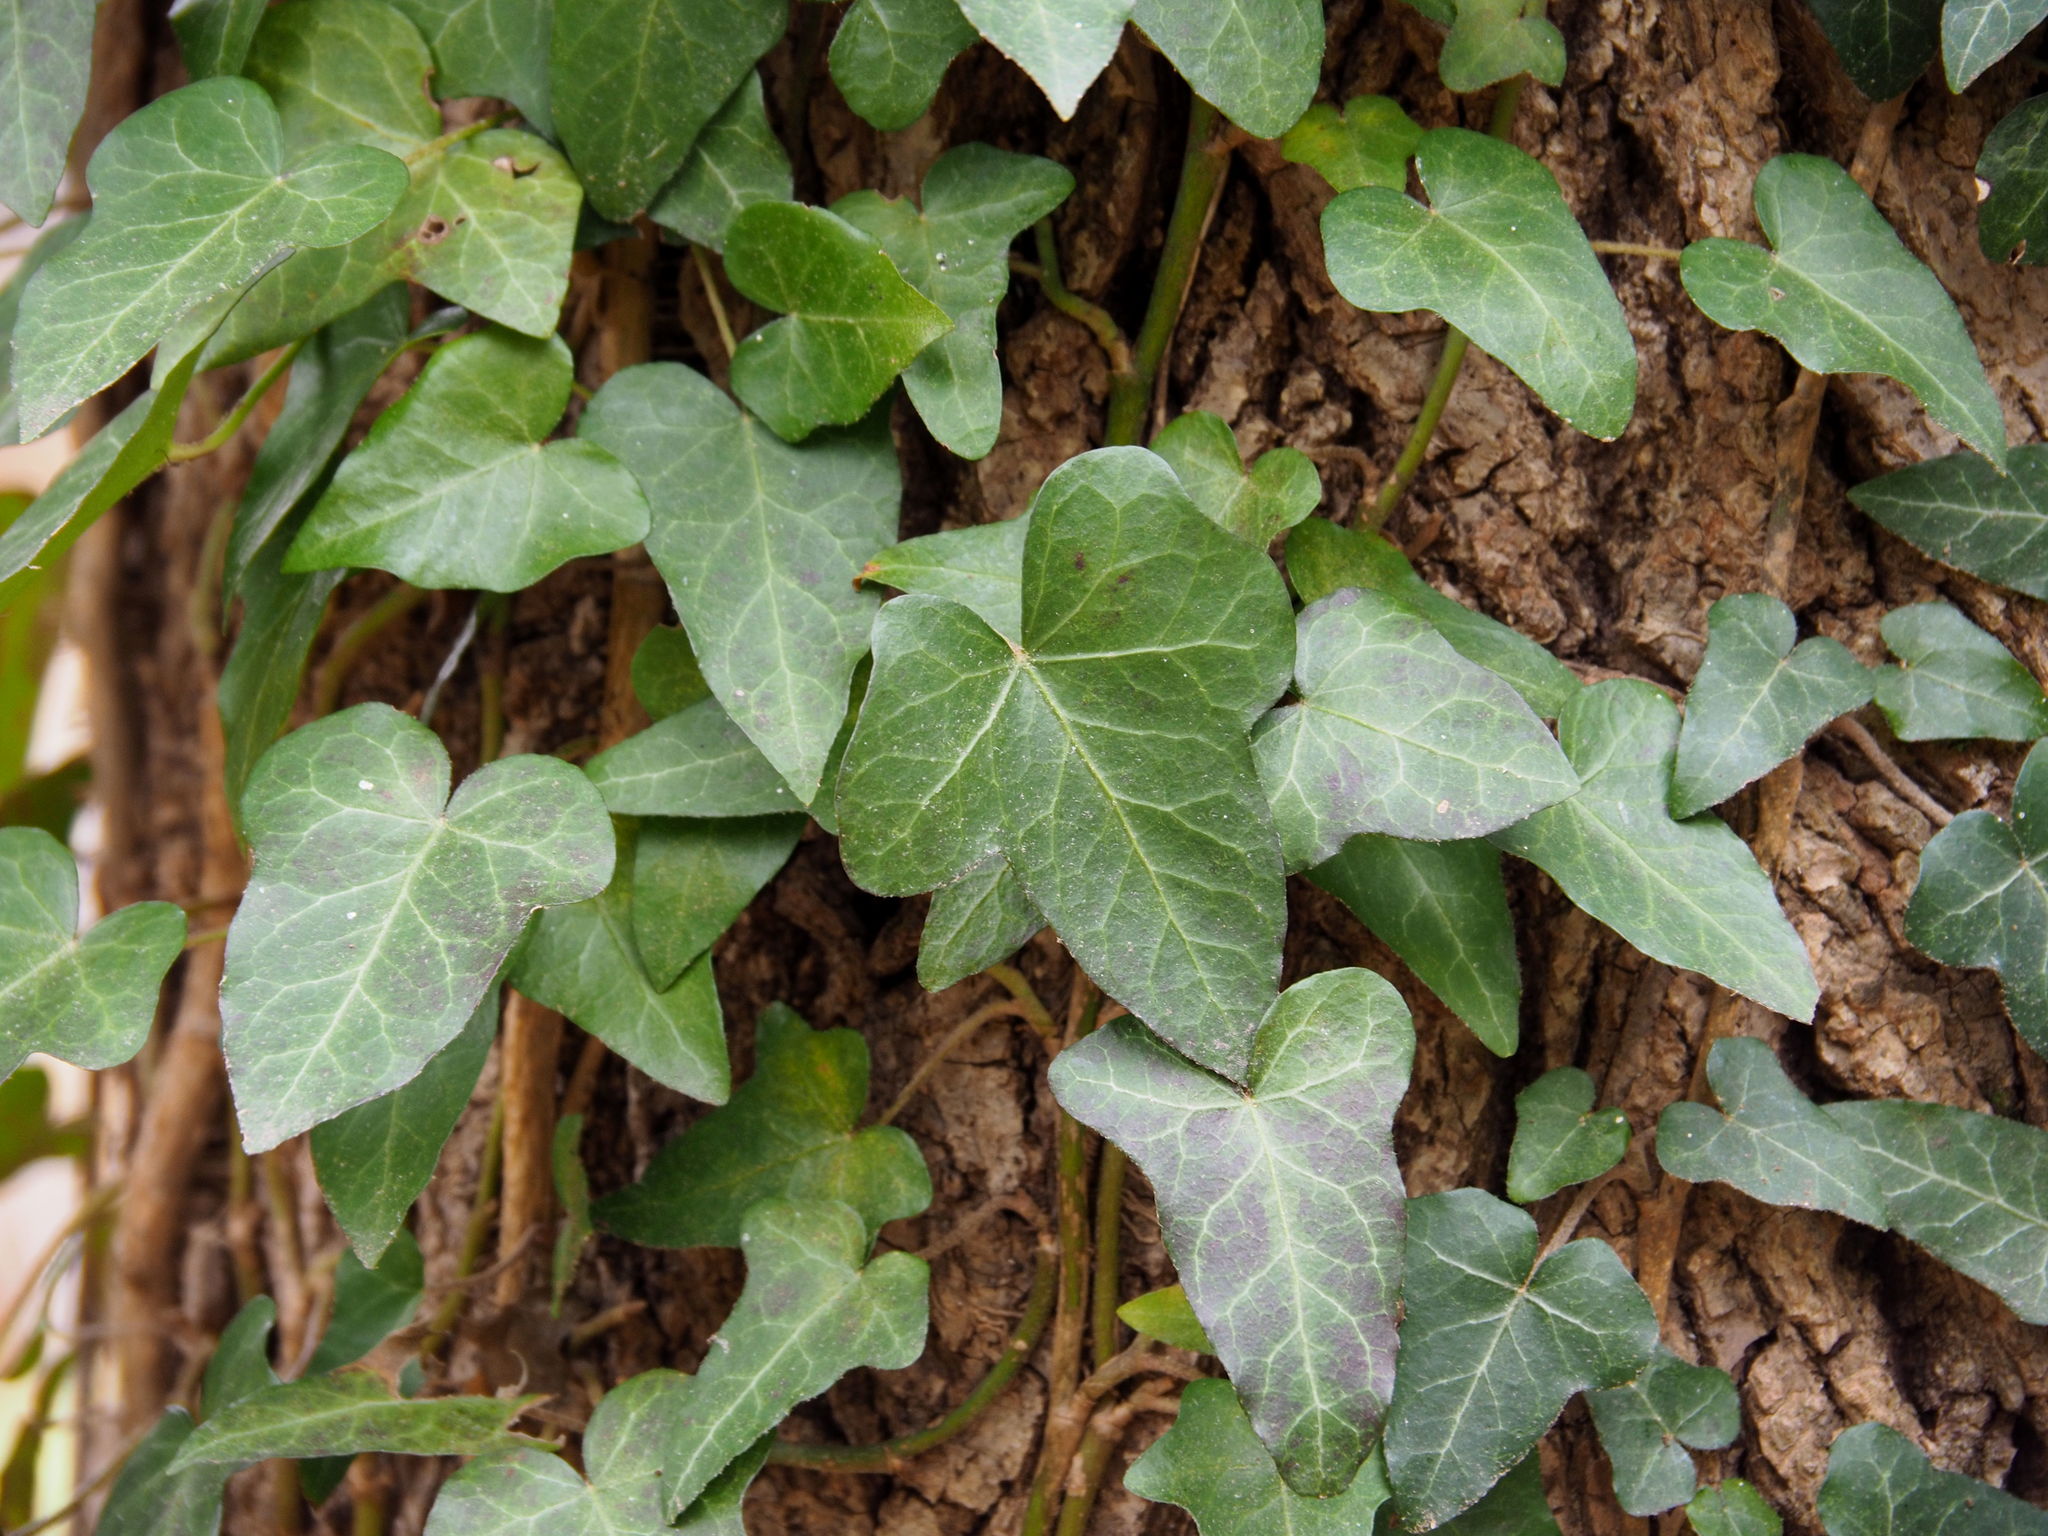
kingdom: Plantae
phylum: Tracheophyta
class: Magnoliopsida
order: Apiales
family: Araliaceae
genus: Hedera
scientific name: Hedera helix
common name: Ivy
